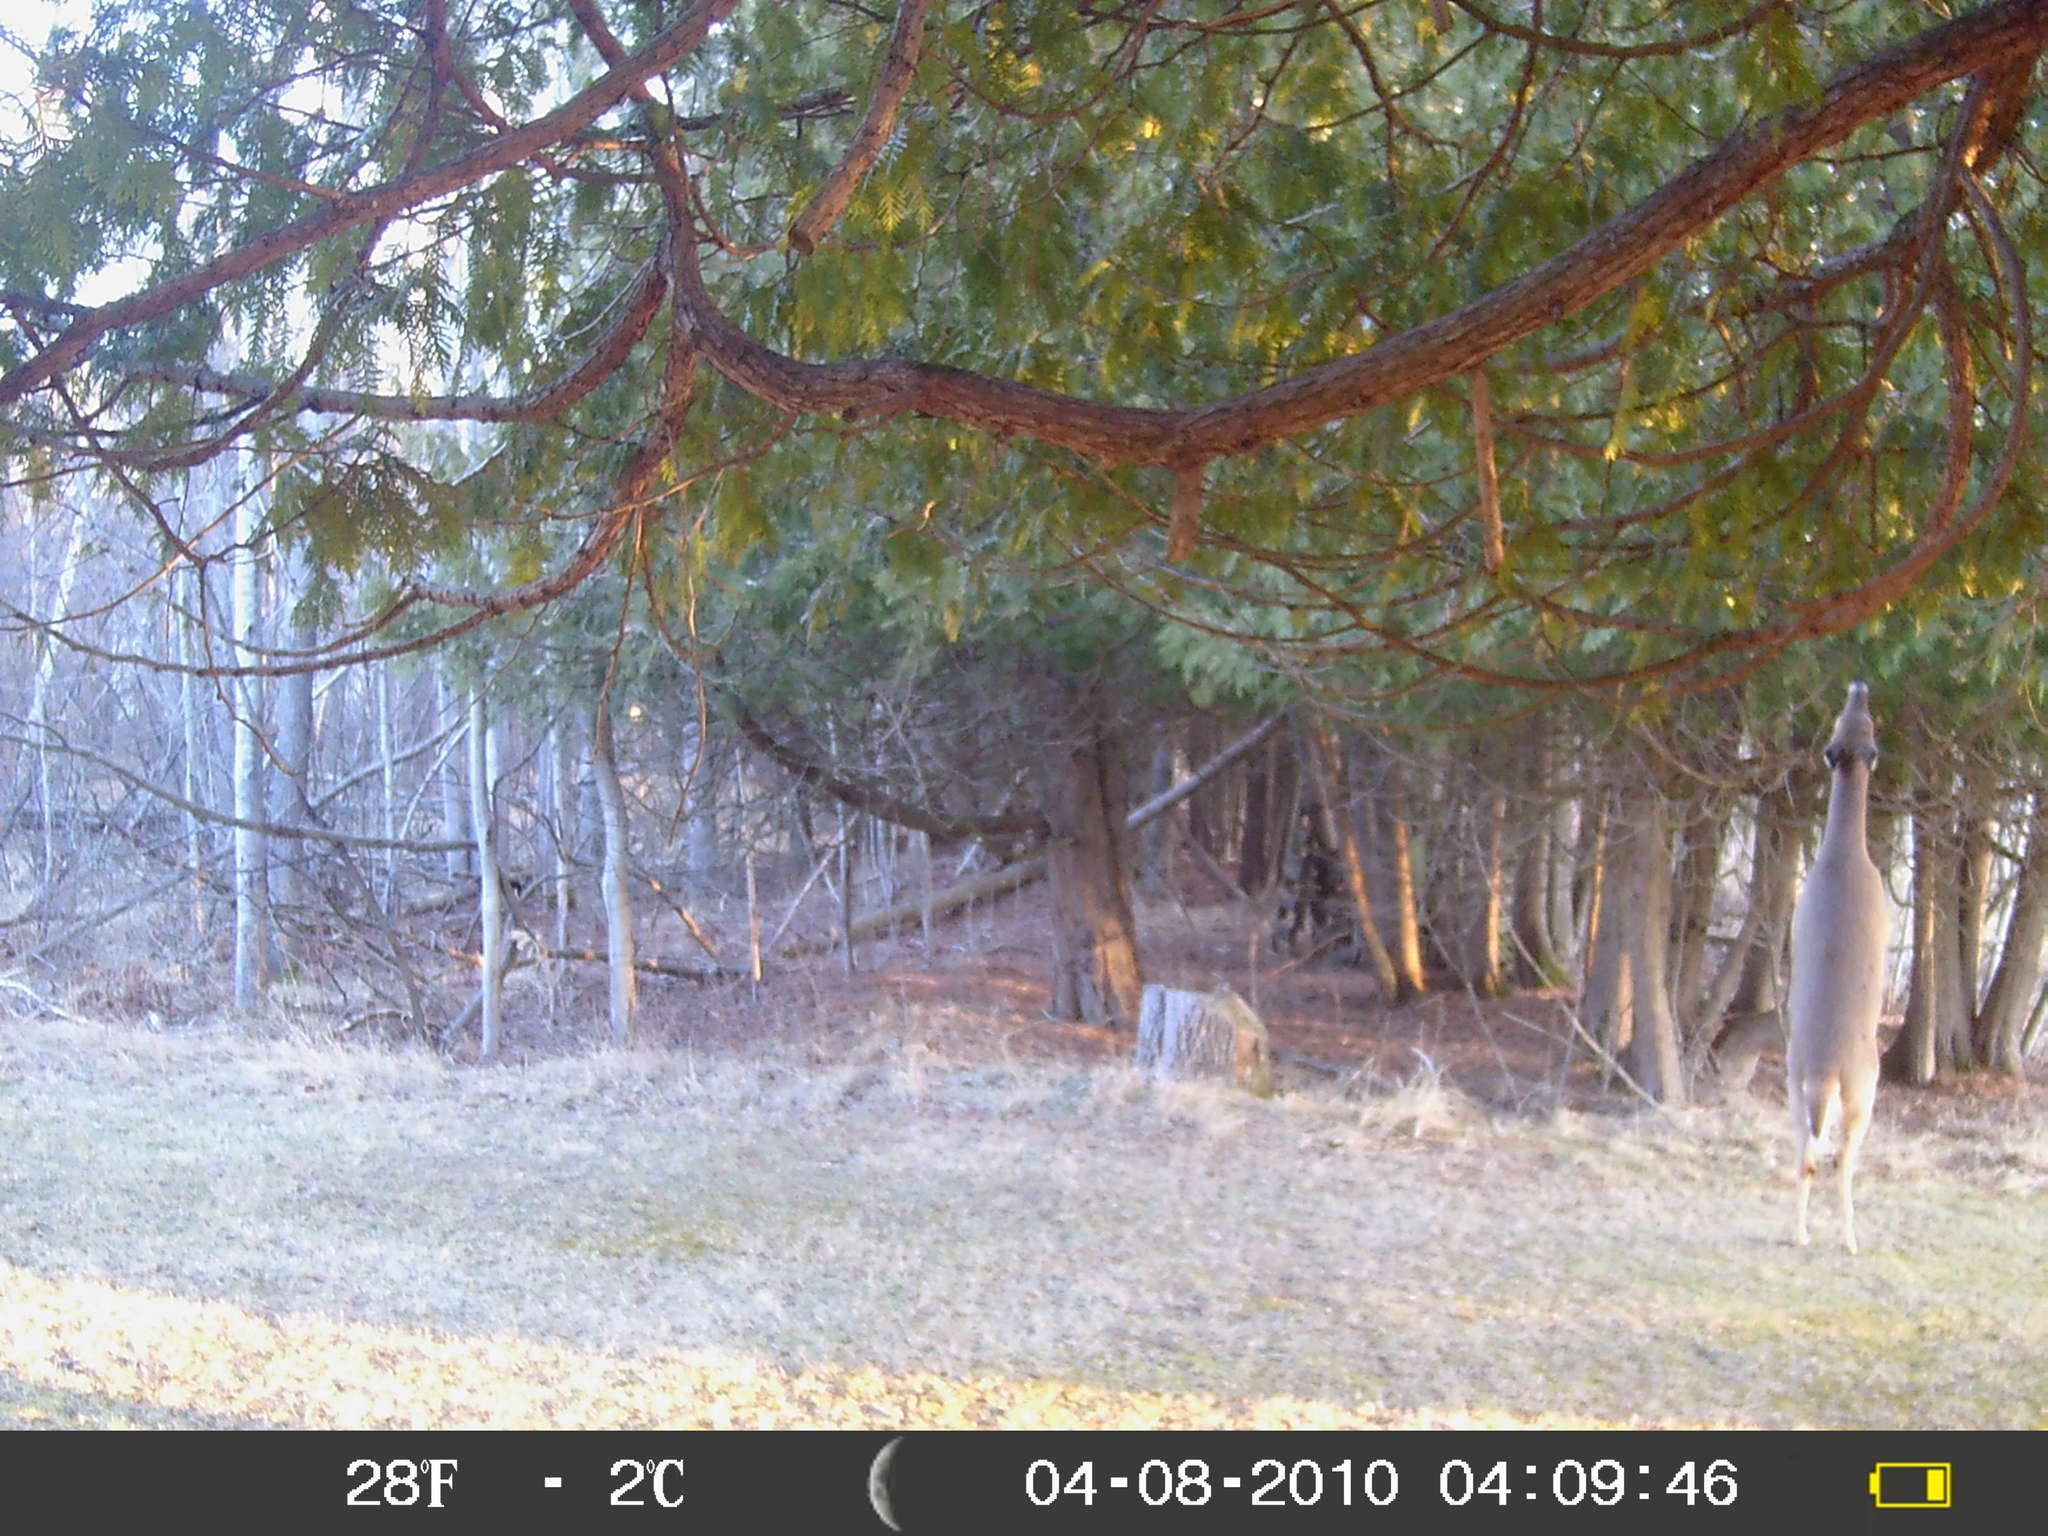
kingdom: Animalia
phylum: Chordata
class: Mammalia
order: Artiodactyla
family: Cervidae
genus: Odocoileus
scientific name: Odocoileus virginianus
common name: White-tailed deer
